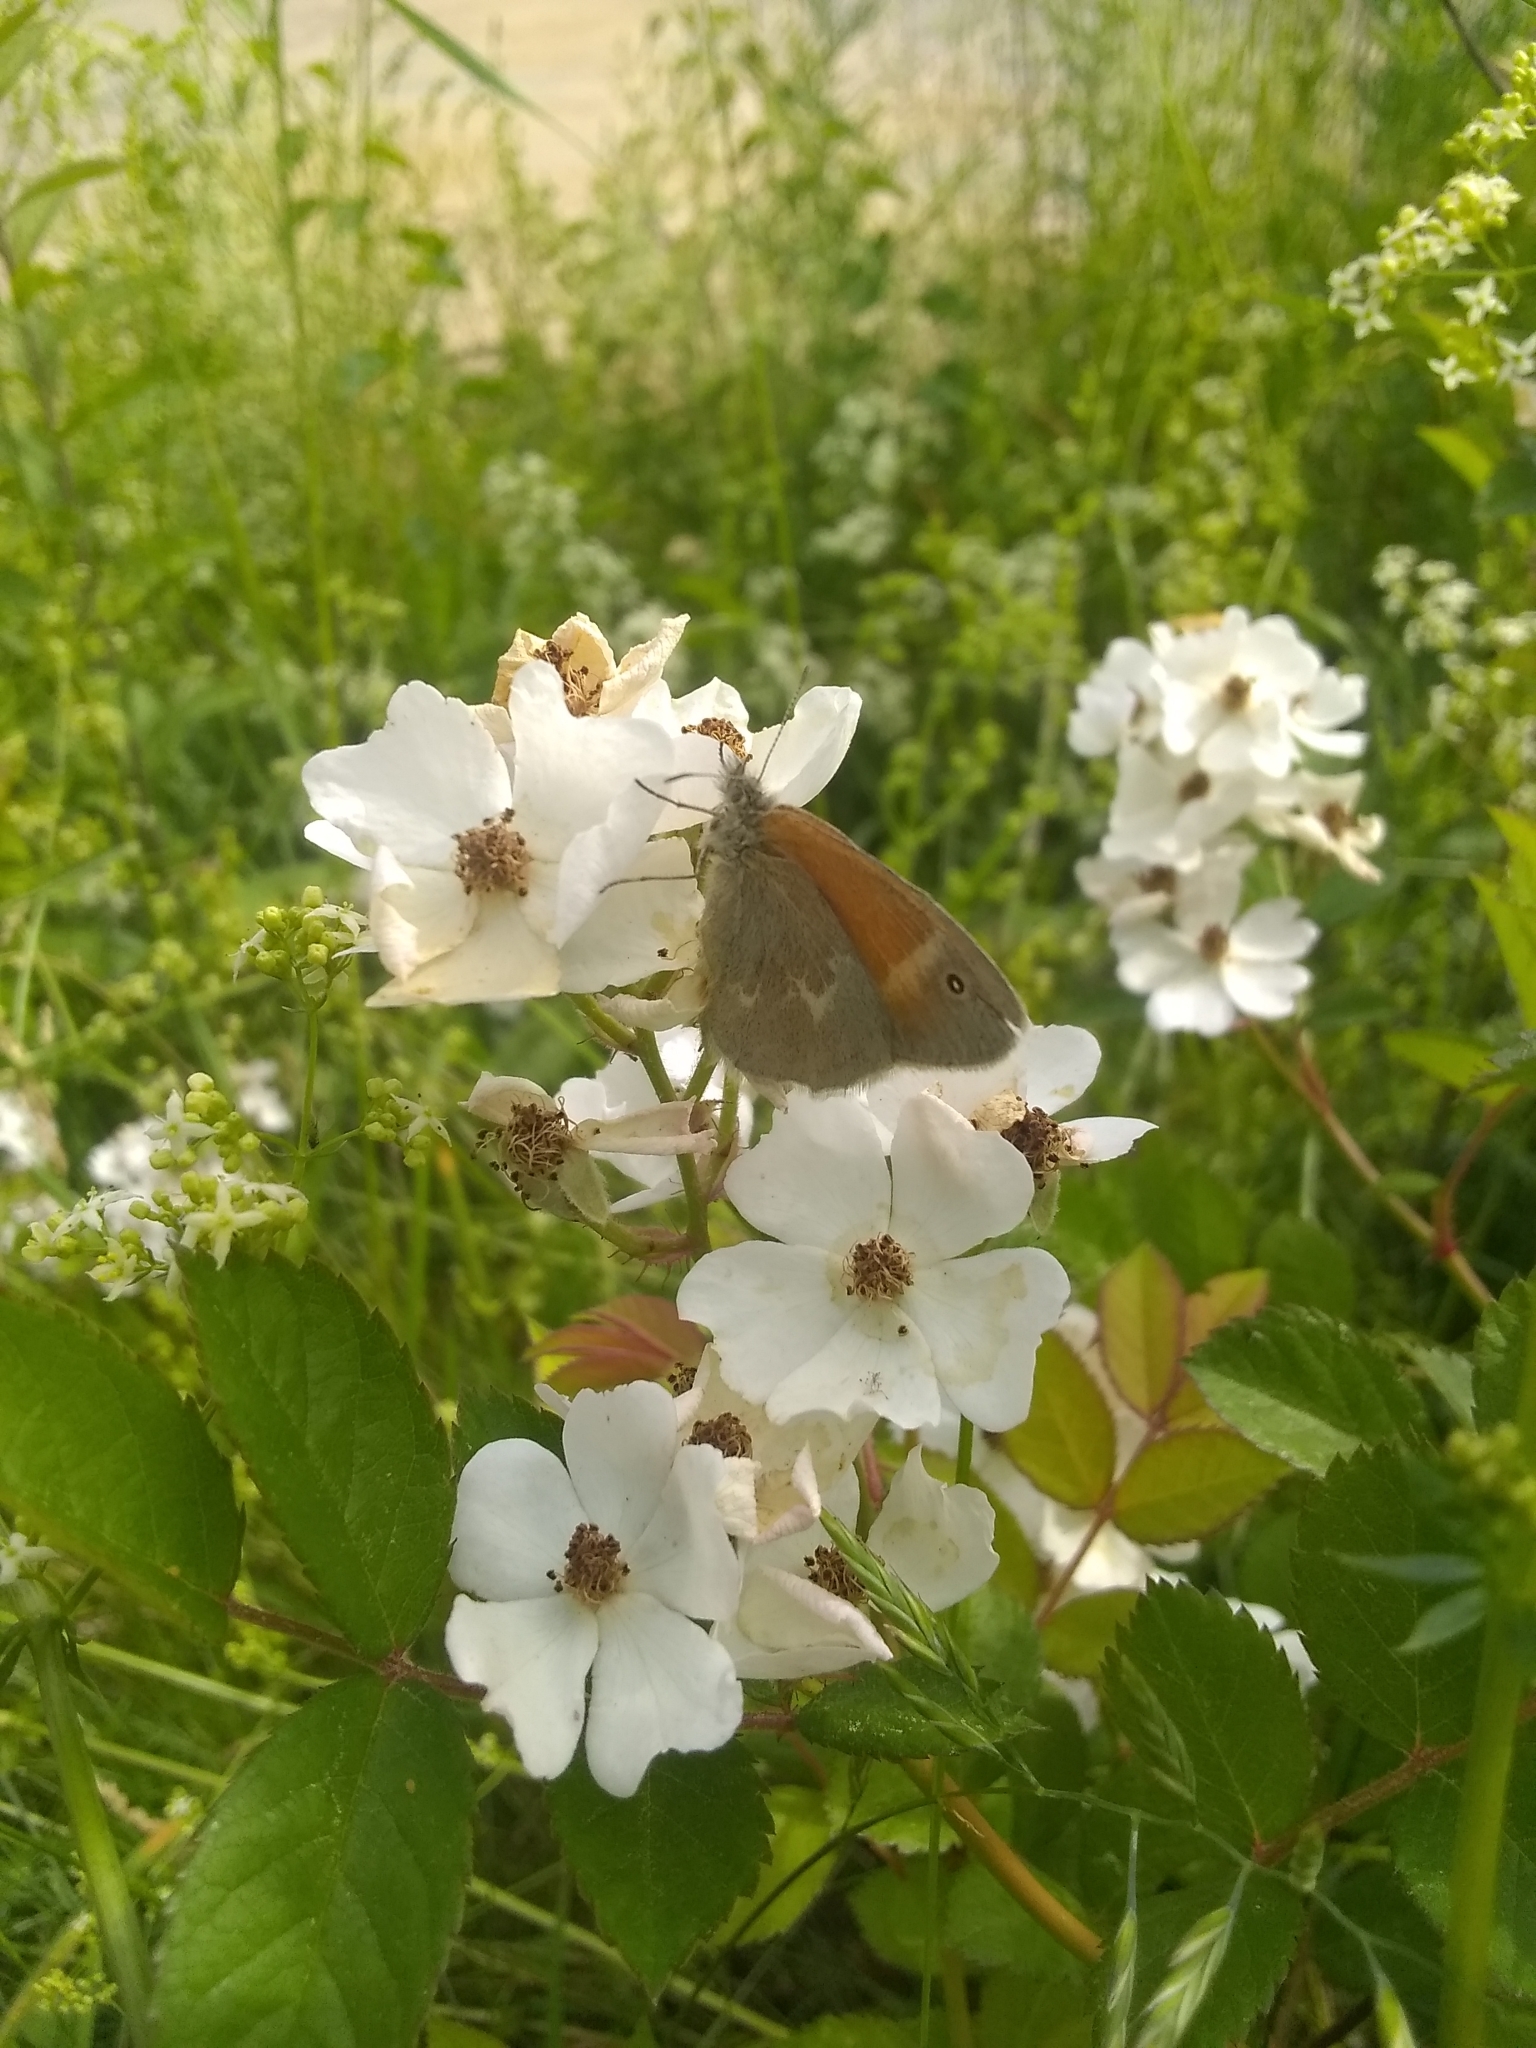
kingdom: Animalia
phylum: Arthropoda
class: Insecta
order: Lepidoptera
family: Nymphalidae
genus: Coenonympha
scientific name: Coenonympha california
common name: Common ringlet
